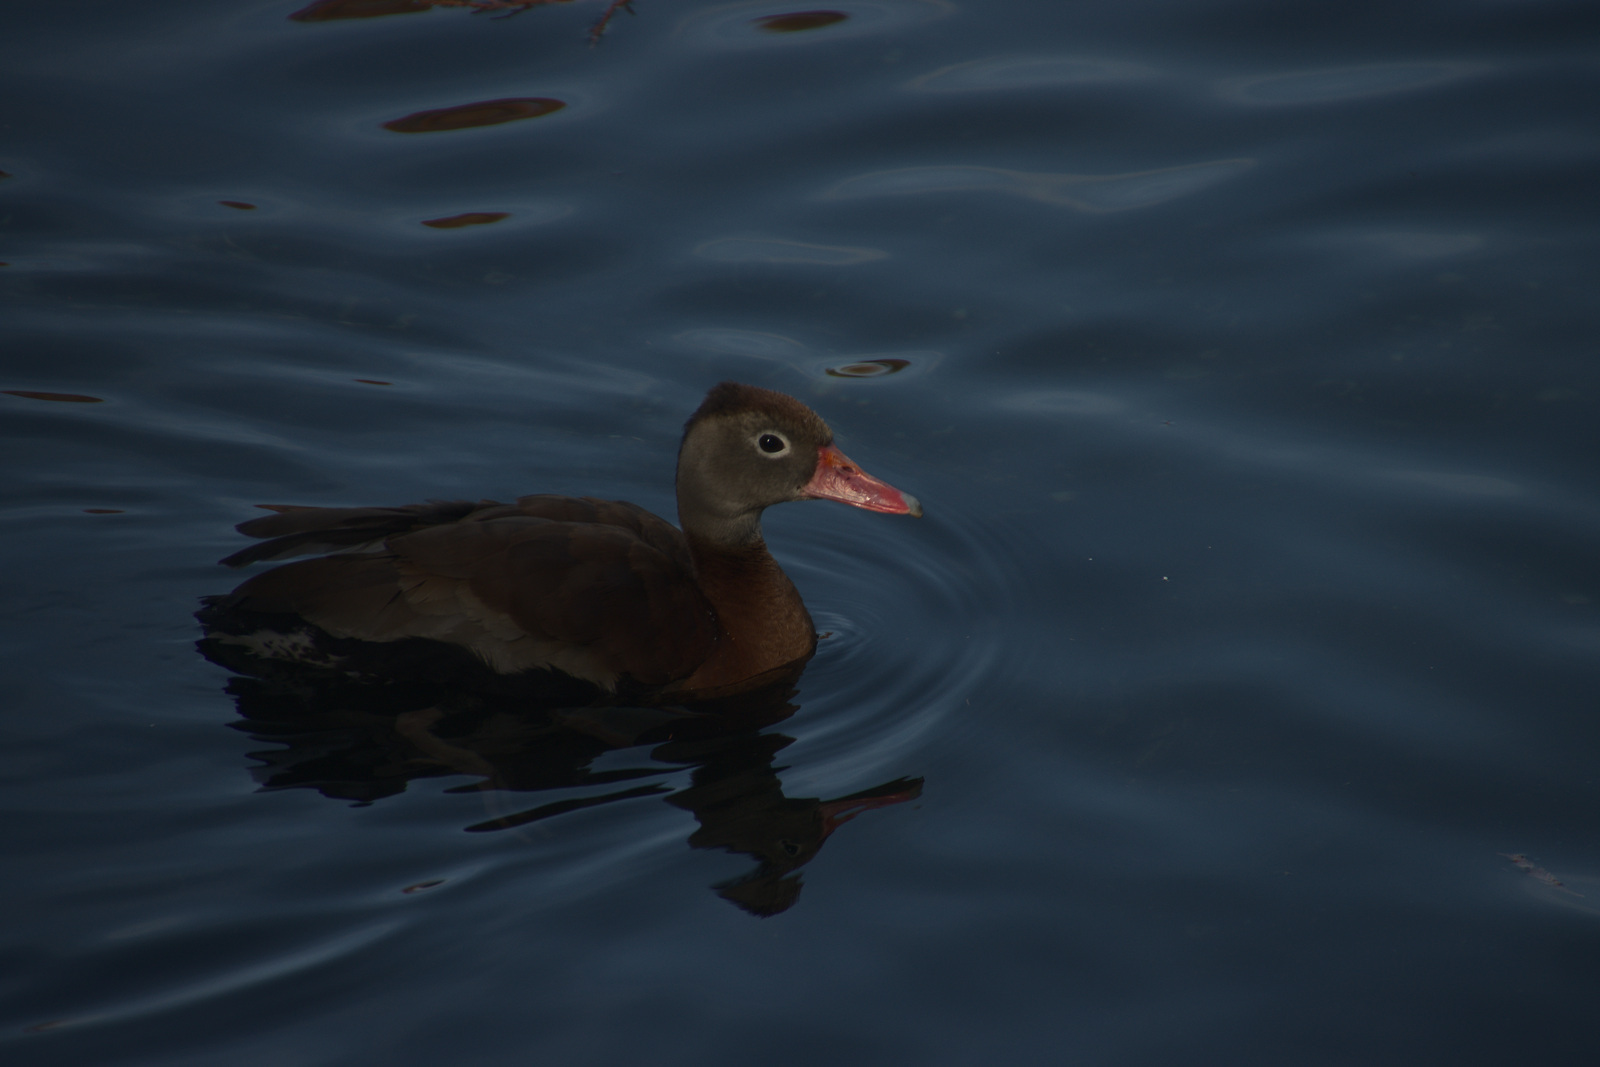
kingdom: Animalia
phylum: Chordata
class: Aves
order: Anseriformes
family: Anatidae
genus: Dendrocygna
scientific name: Dendrocygna autumnalis
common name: Black-bellied whistling duck
